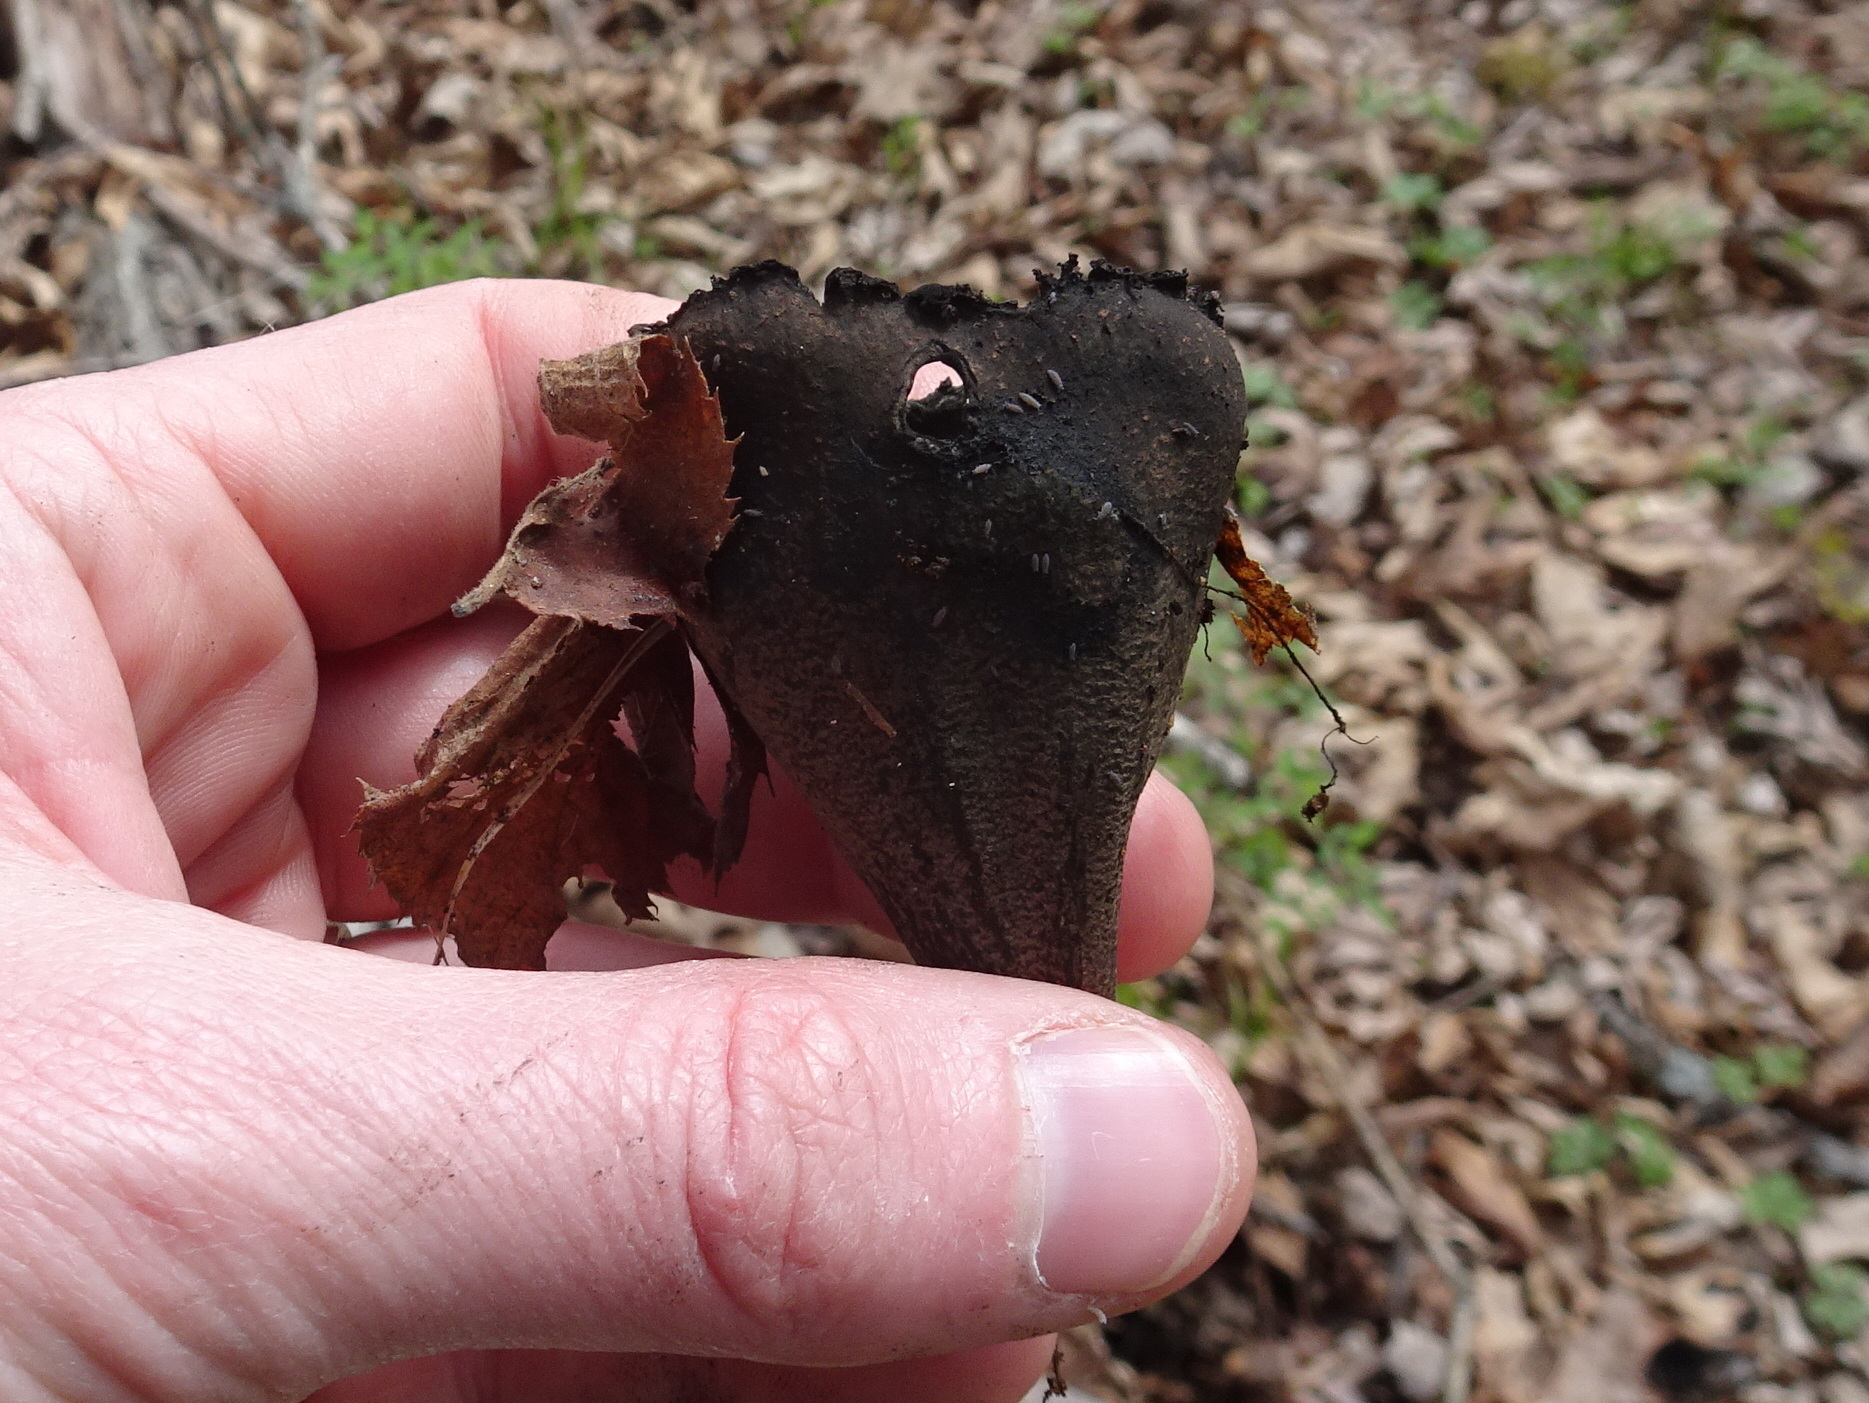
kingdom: Fungi
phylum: Ascomycota
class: Pezizomycetes
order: Pezizales
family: Sarcosomataceae
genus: Urnula
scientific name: Urnula craterium
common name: Devil's urn
